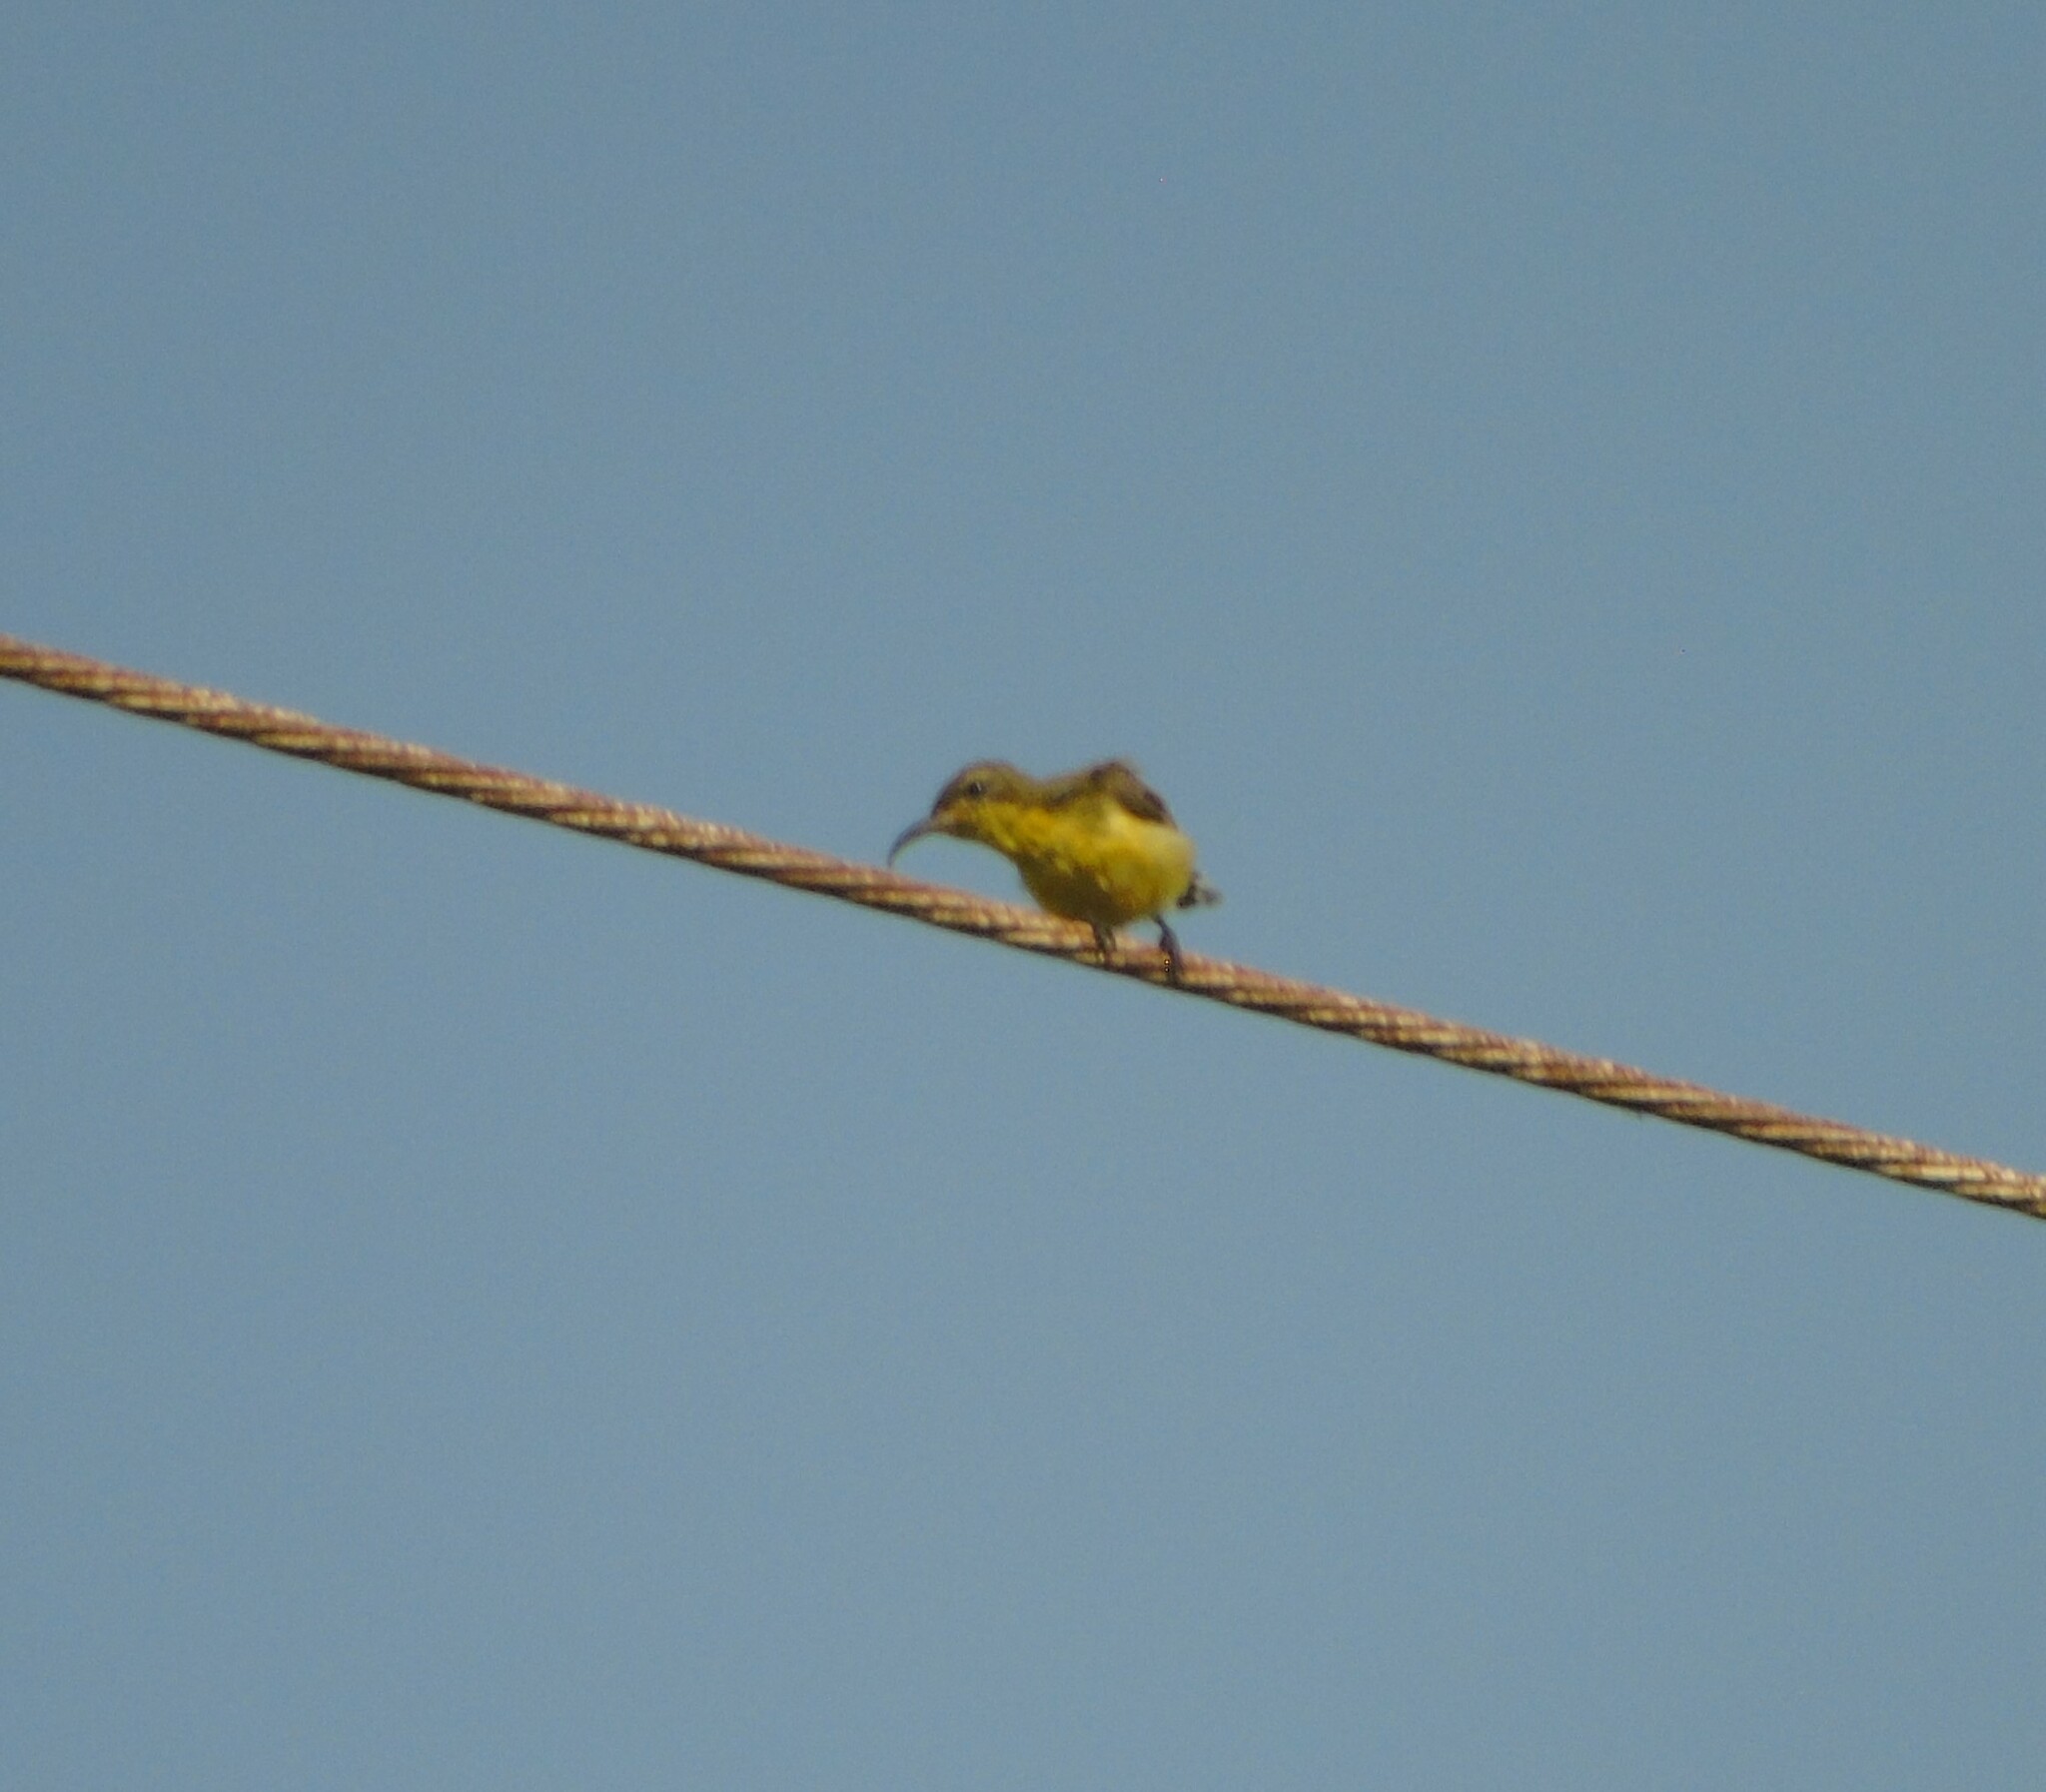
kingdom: Animalia
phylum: Chordata
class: Aves
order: Passeriformes
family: Nectariniidae
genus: Cinnyris
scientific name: Cinnyris
